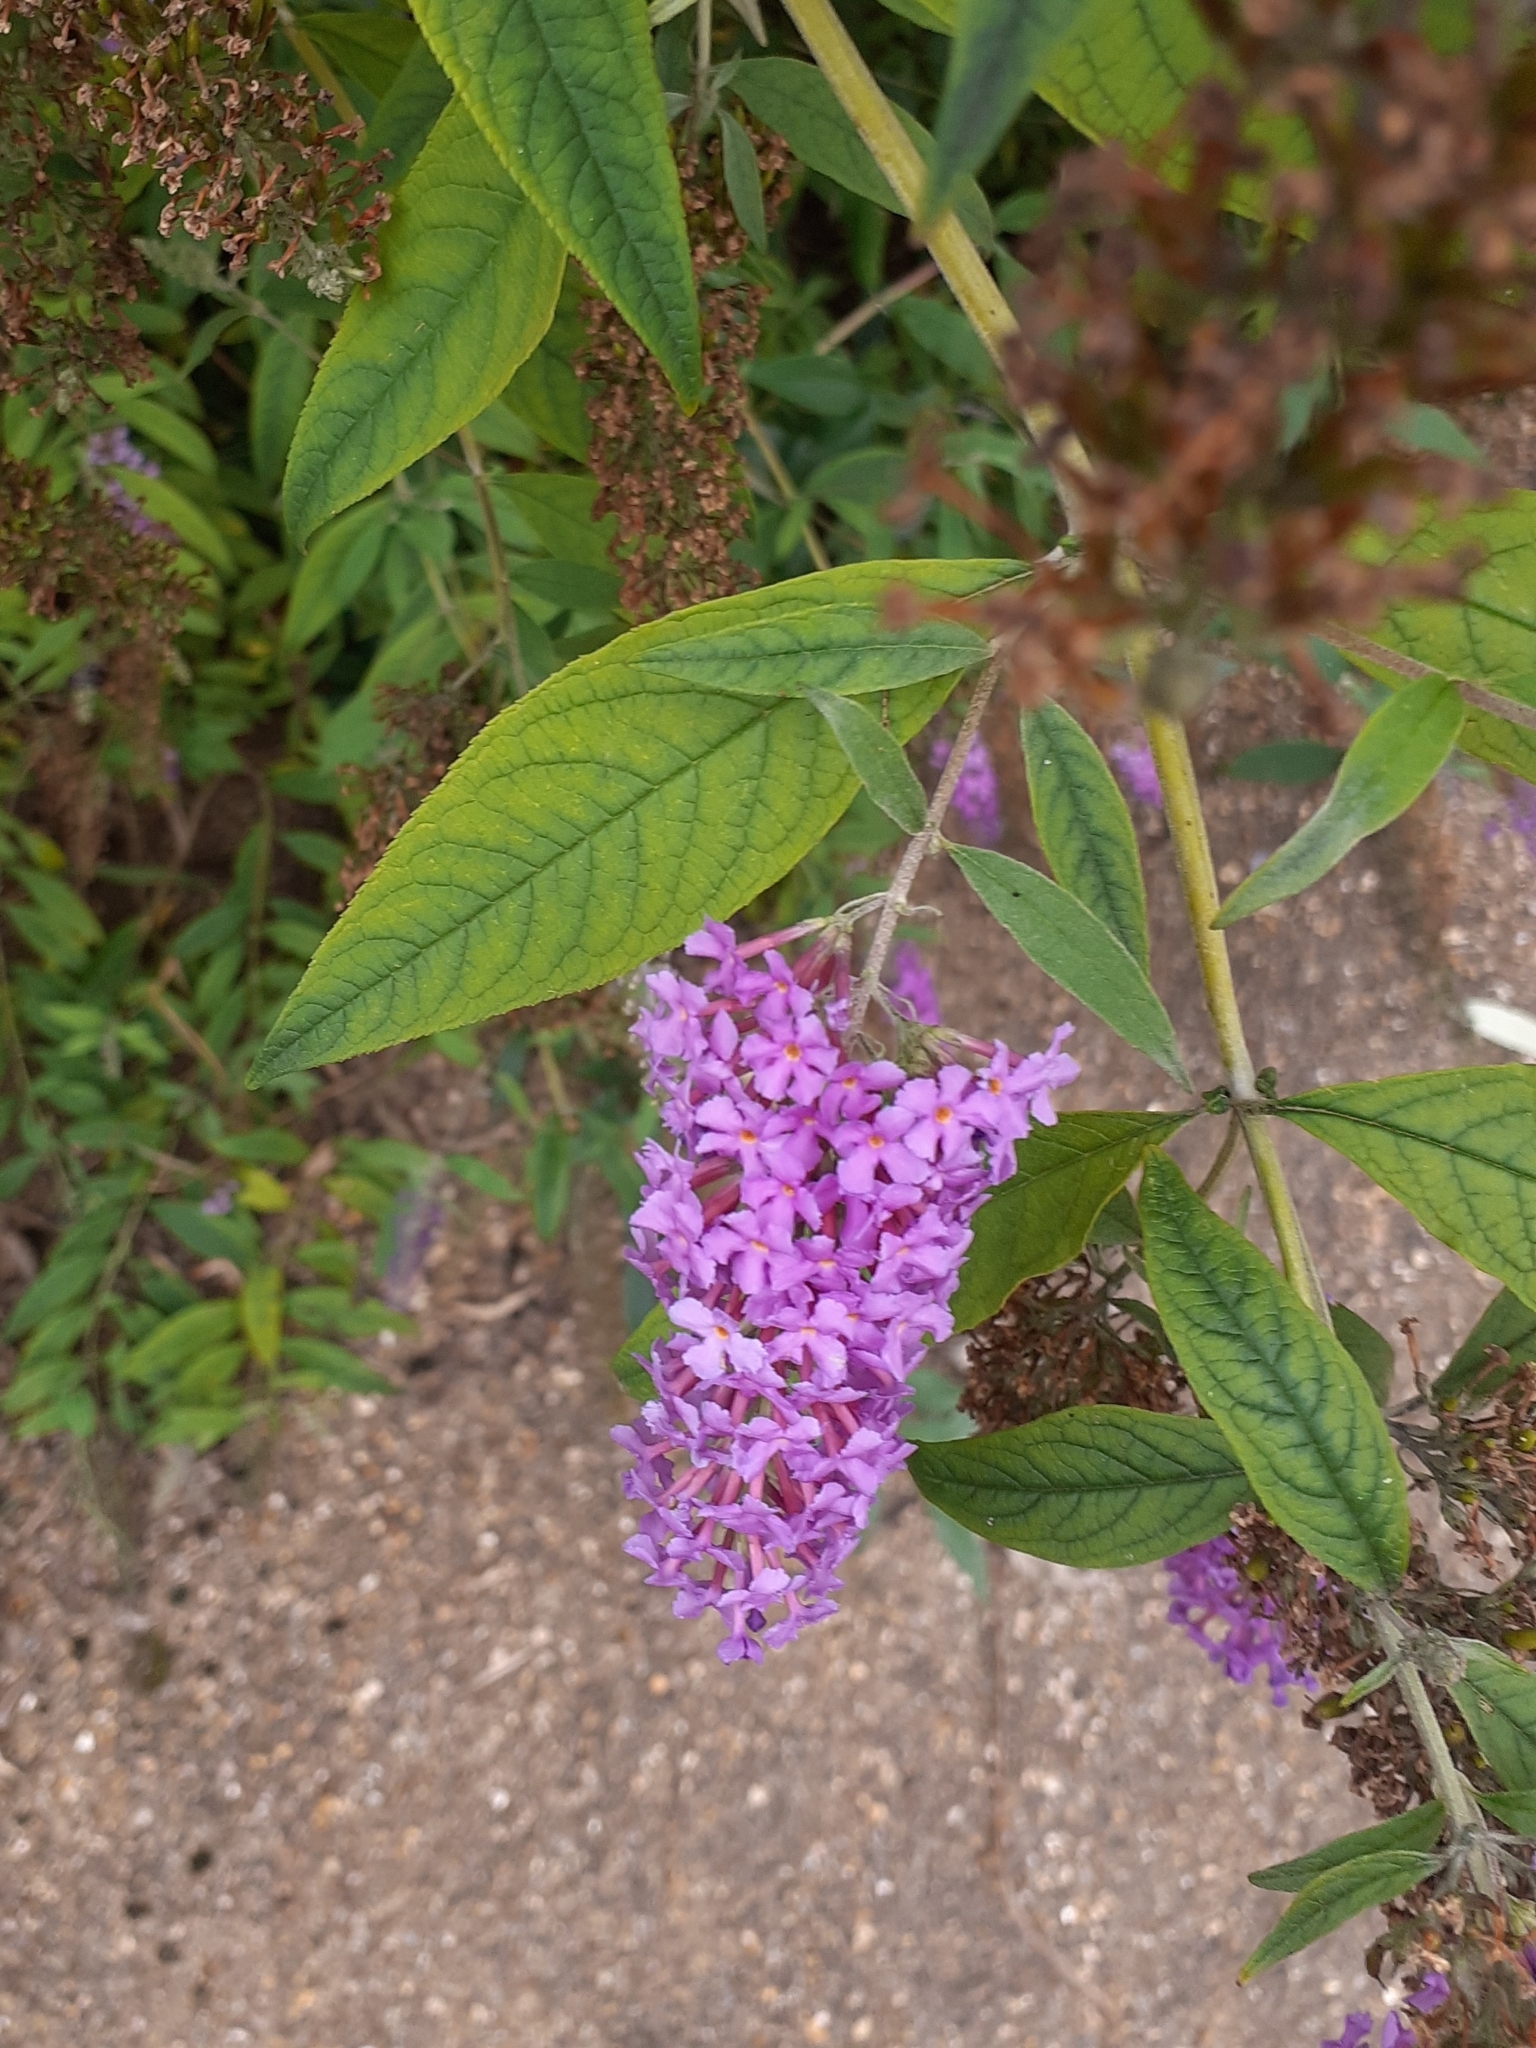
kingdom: Plantae
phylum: Tracheophyta
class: Magnoliopsida
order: Lamiales
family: Scrophulariaceae
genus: Buddleja
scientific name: Buddleja davidii
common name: Butterfly-bush
